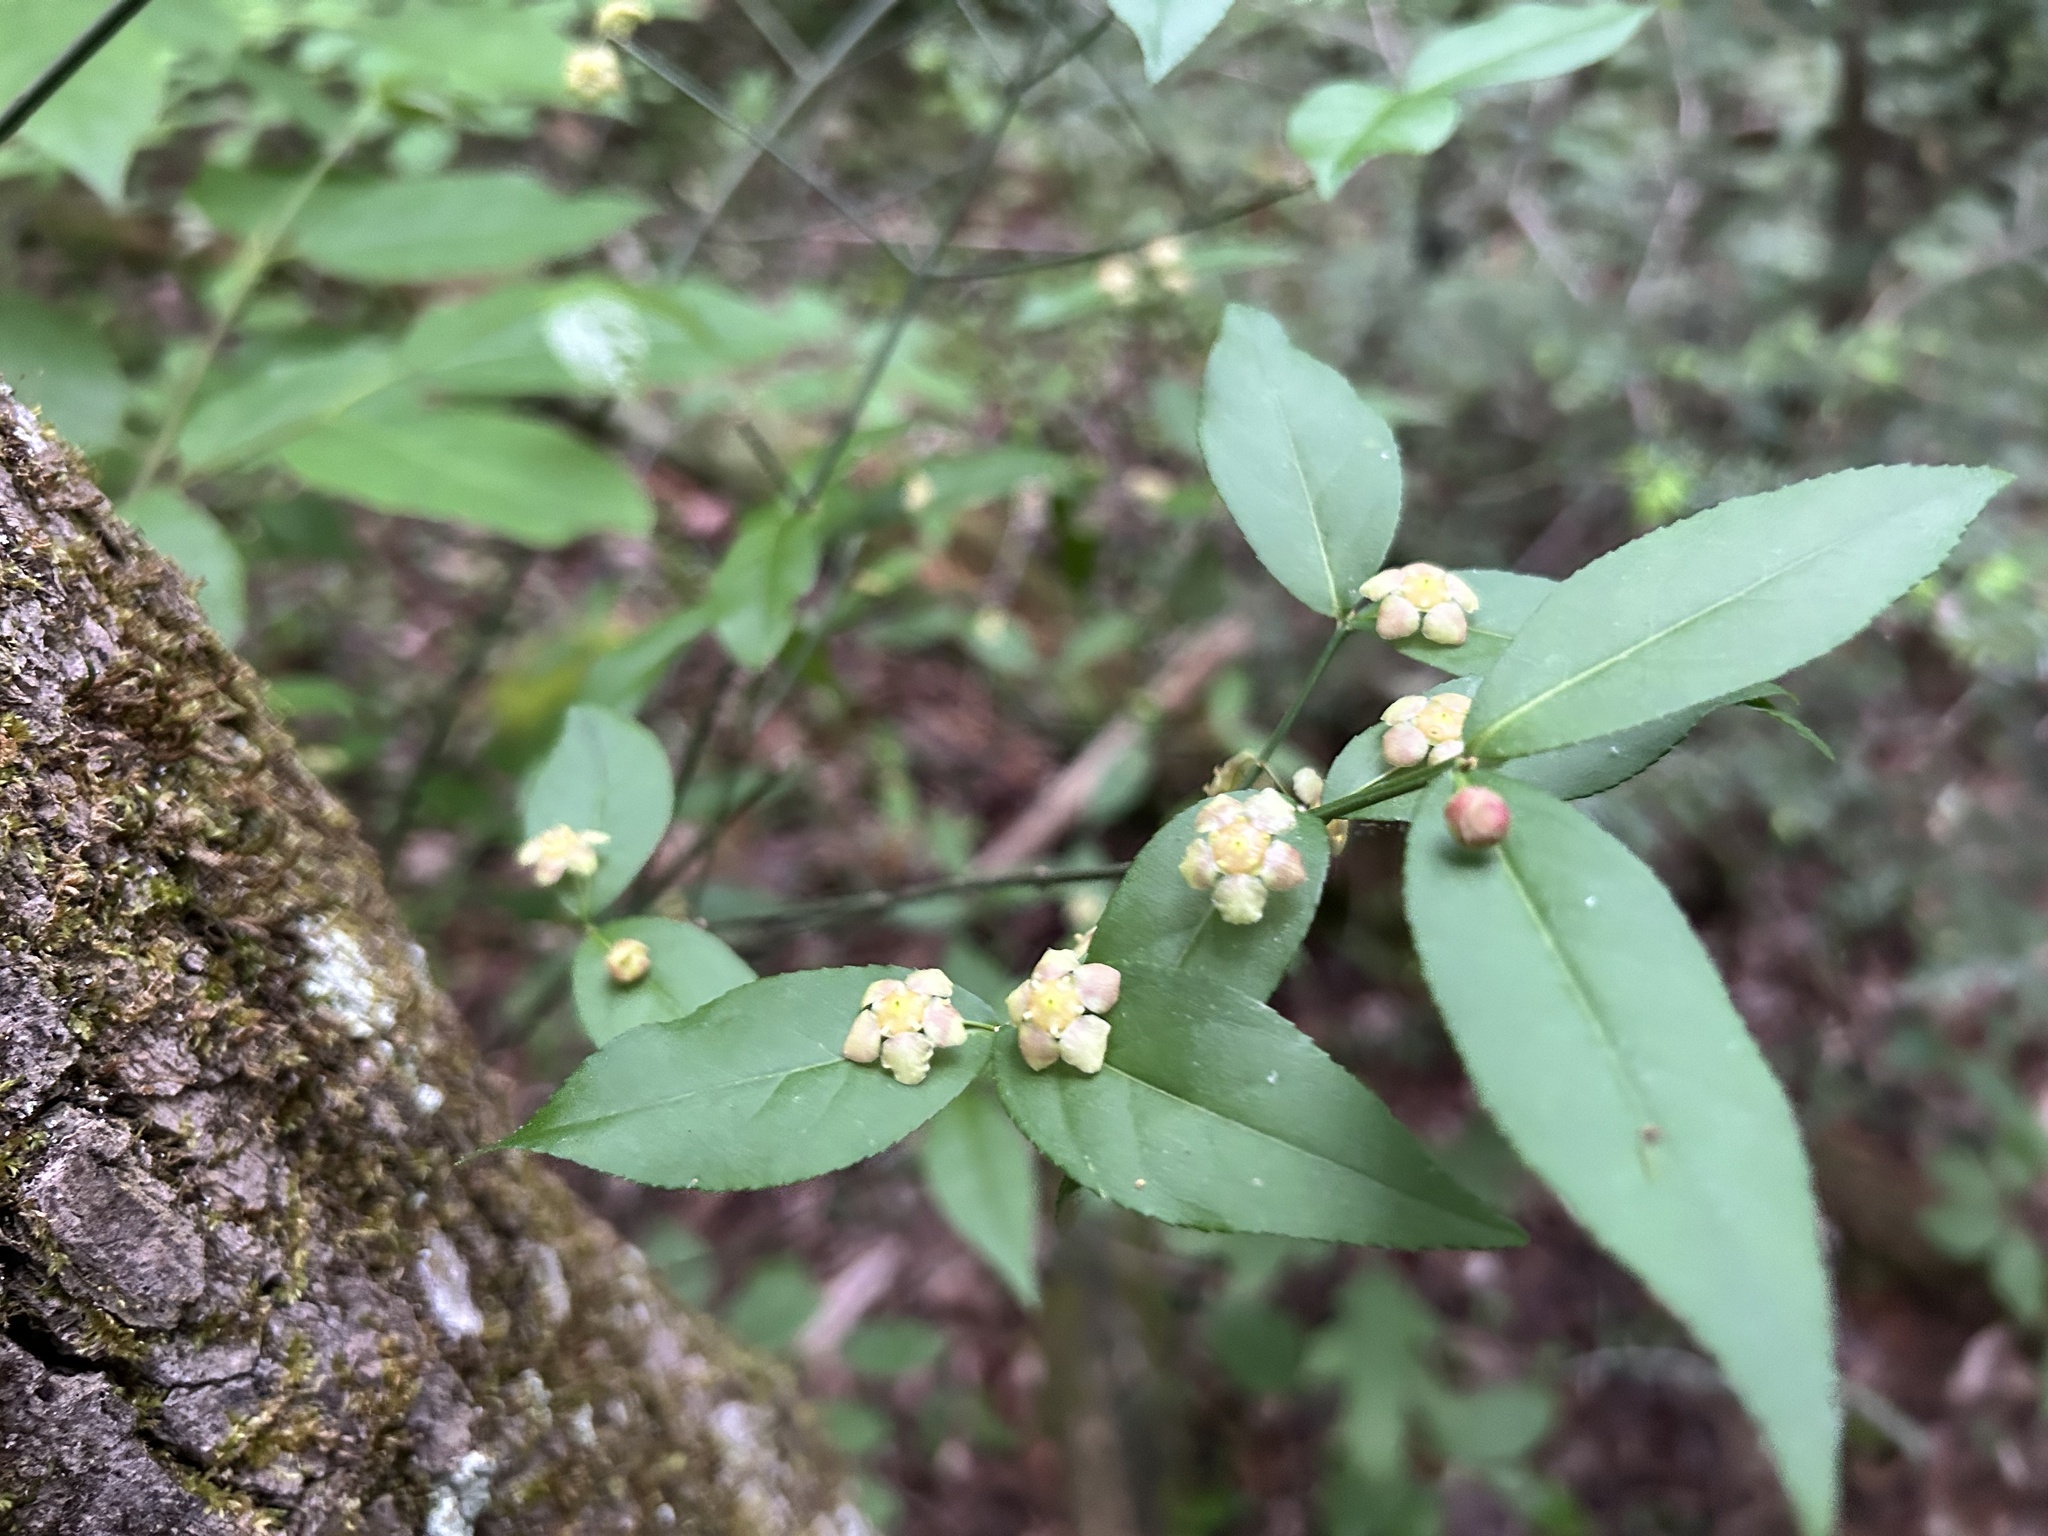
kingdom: Plantae
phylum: Tracheophyta
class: Magnoliopsida
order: Celastrales
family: Celastraceae
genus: Euonymus
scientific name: Euonymus americanus
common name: Bursting-heart
